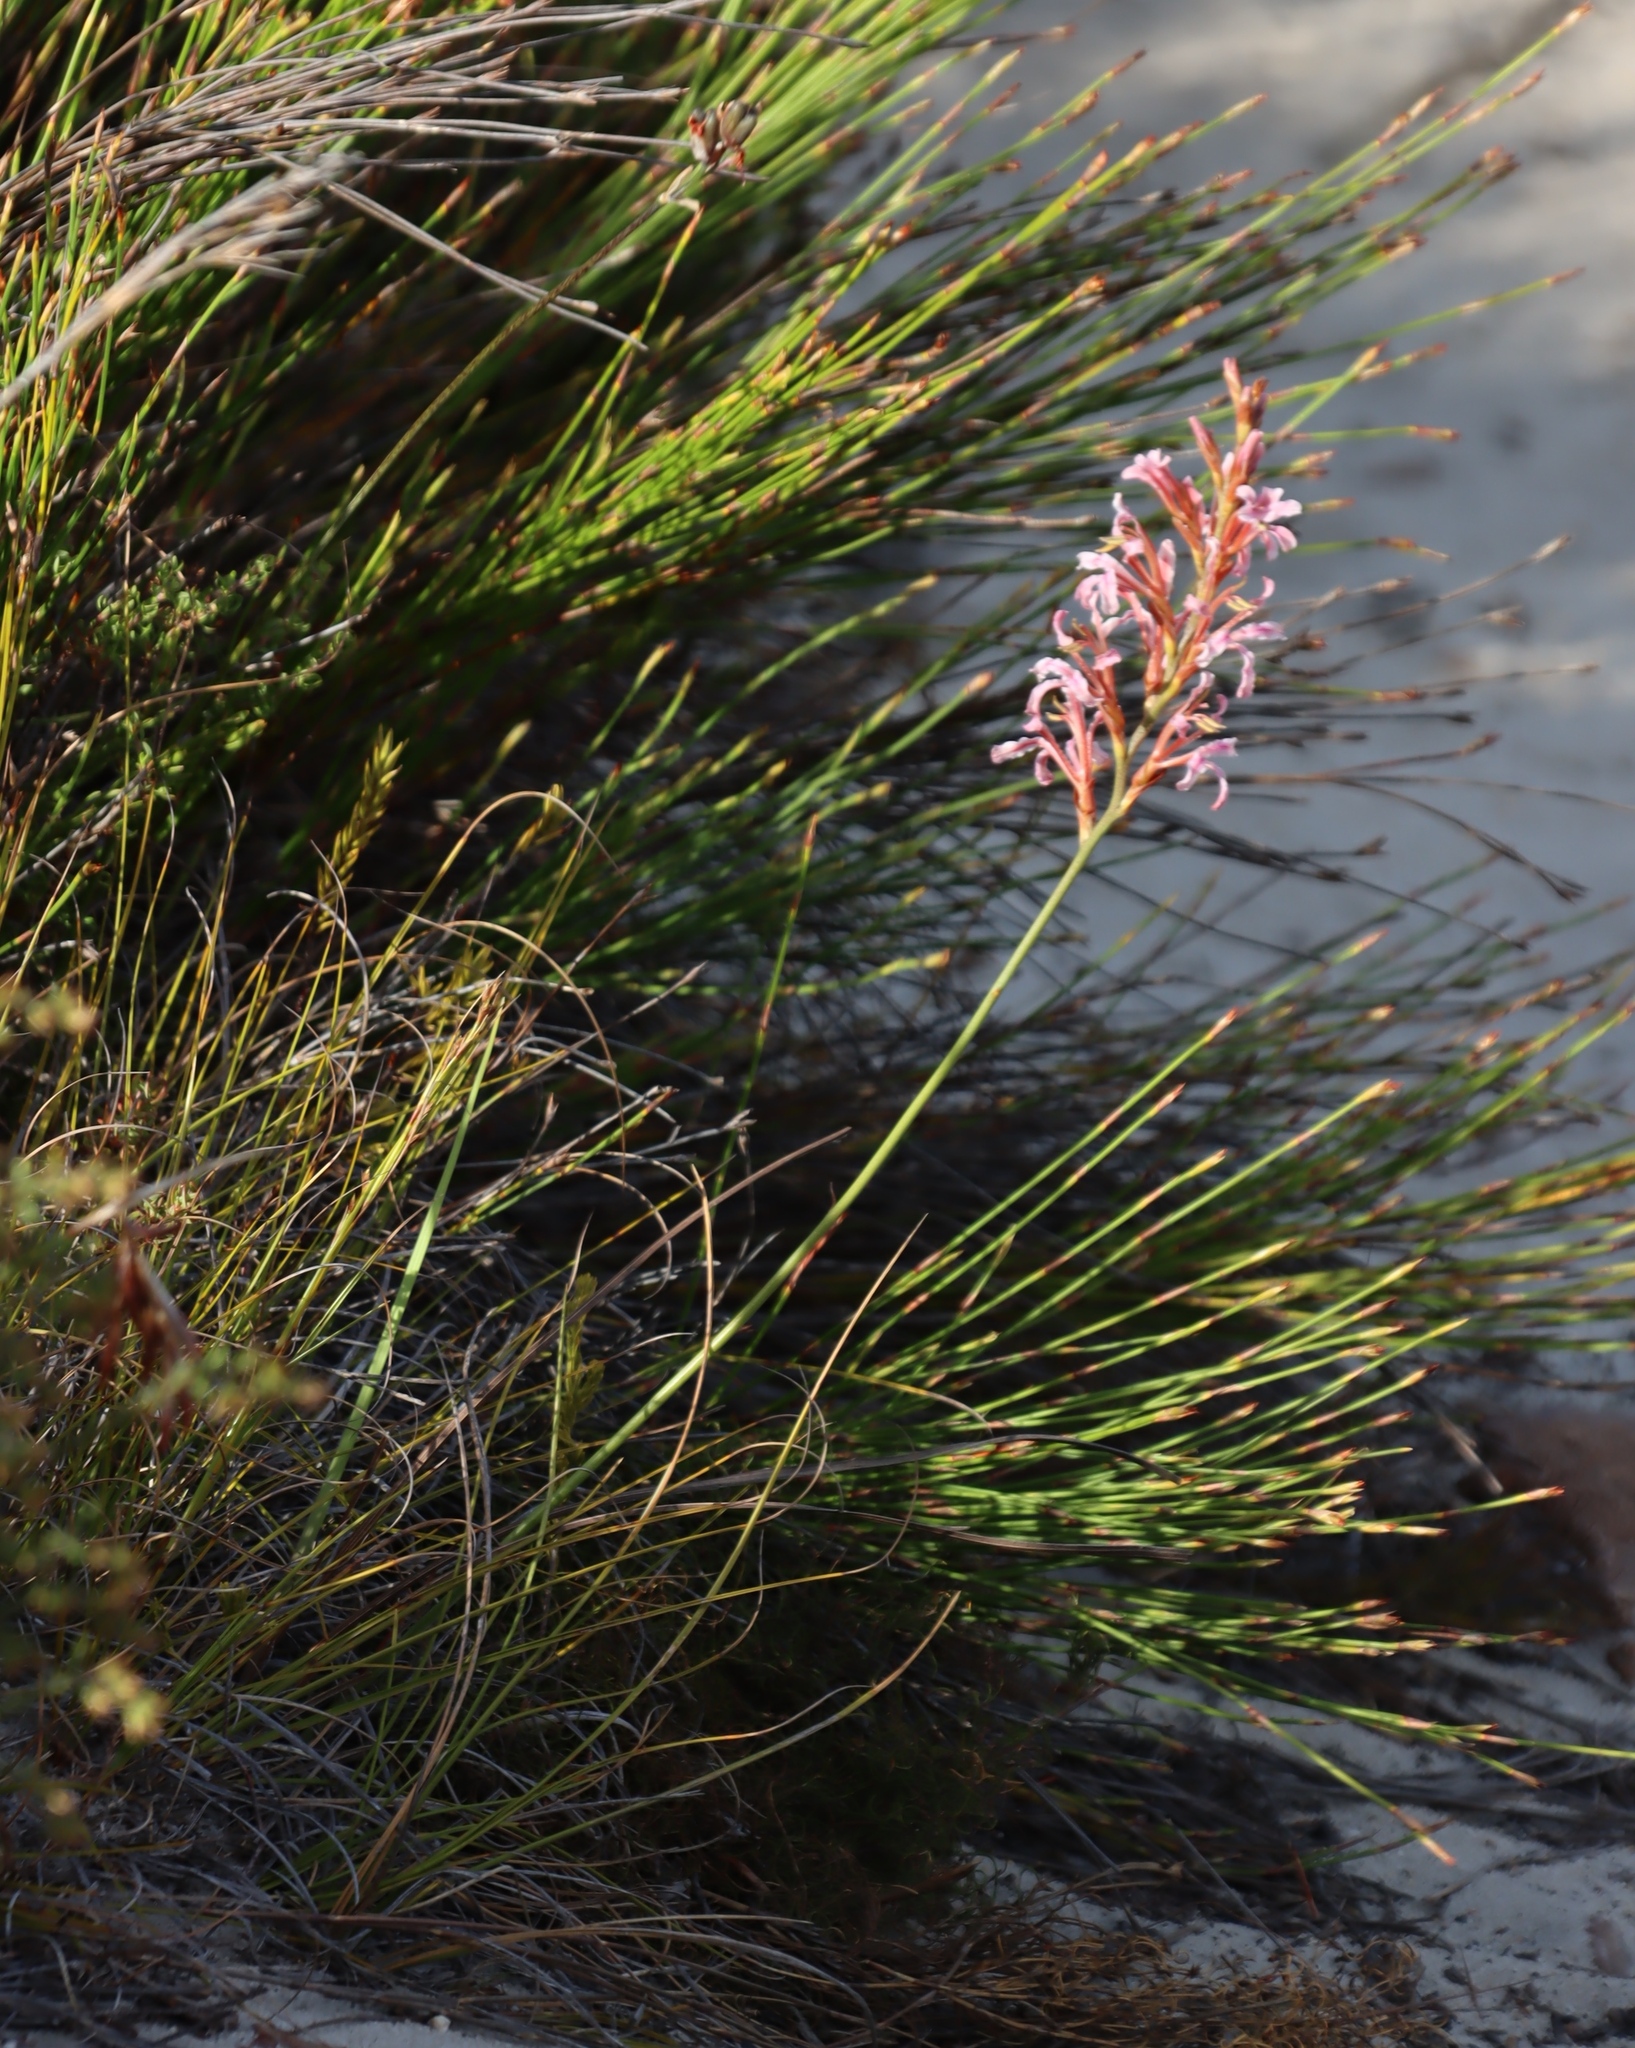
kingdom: Plantae
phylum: Tracheophyta
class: Liliopsida
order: Asparagales
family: Iridaceae
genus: Tritoniopsis
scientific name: Tritoniopsis dodii
